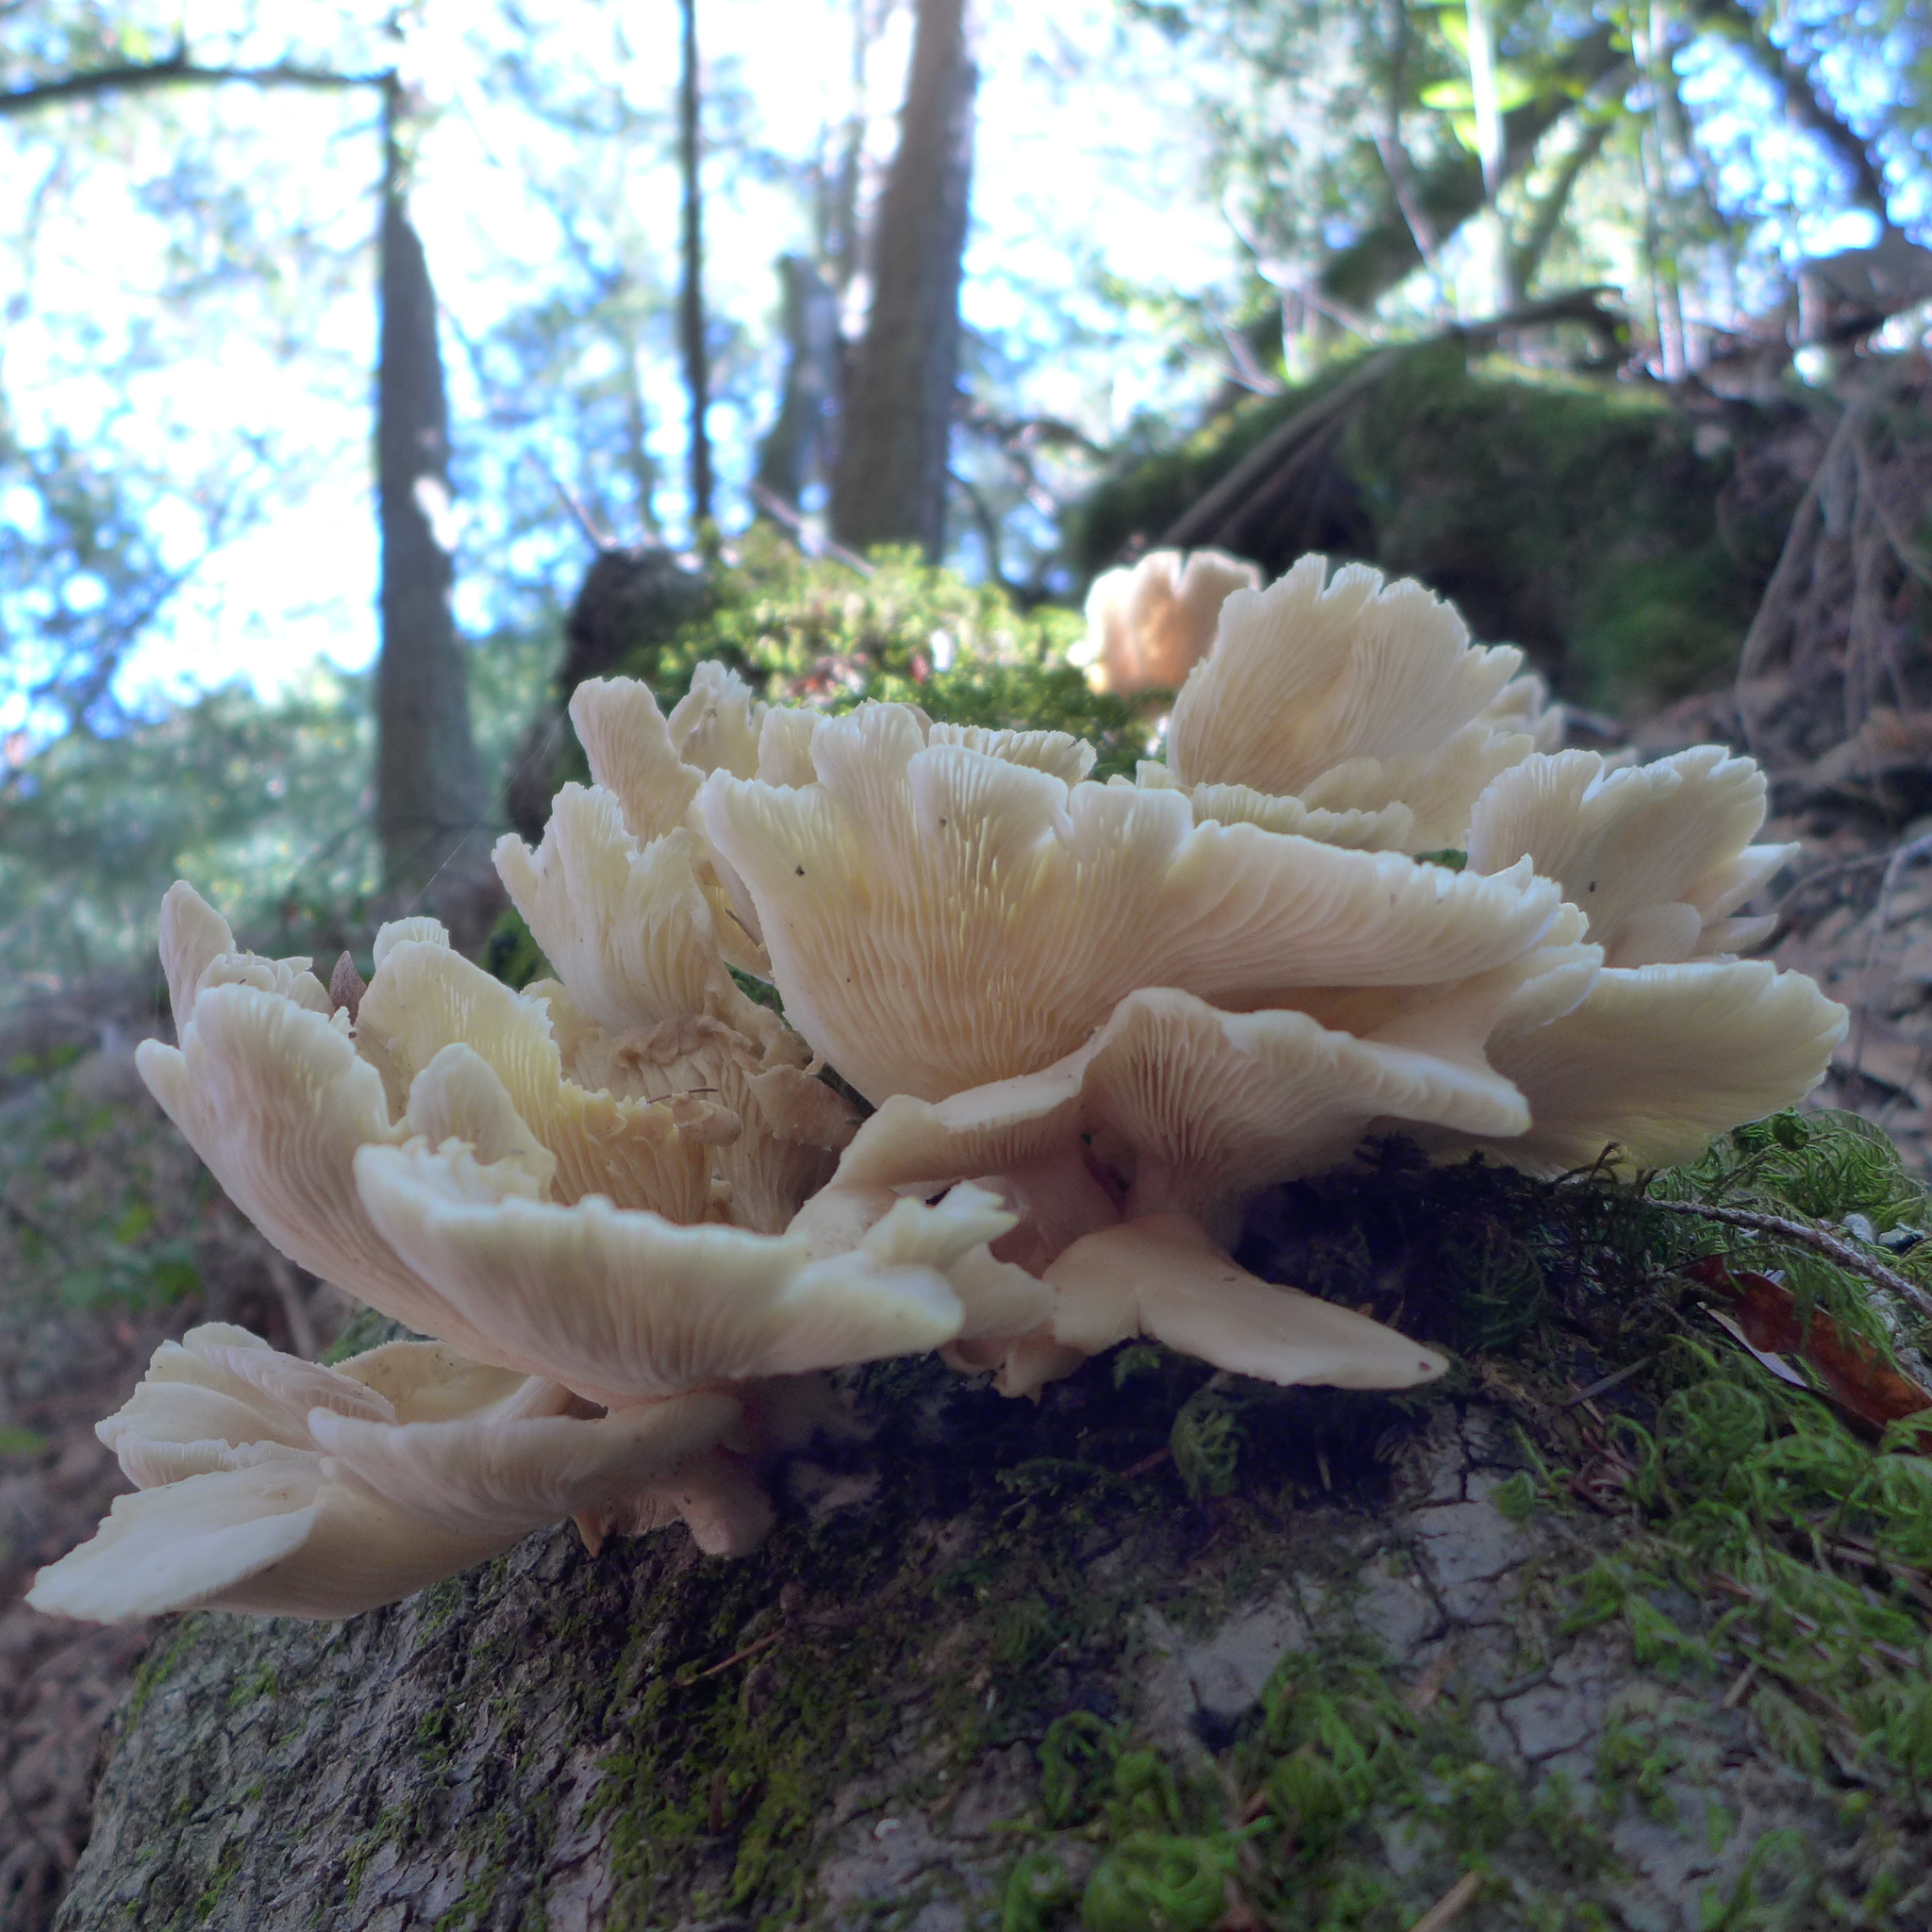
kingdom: Fungi
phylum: Basidiomycota
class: Agaricomycetes
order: Agaricales
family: Pleurotaceae
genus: Pleurotus
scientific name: Pleurotus ostreatus
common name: Oyster mushroom
